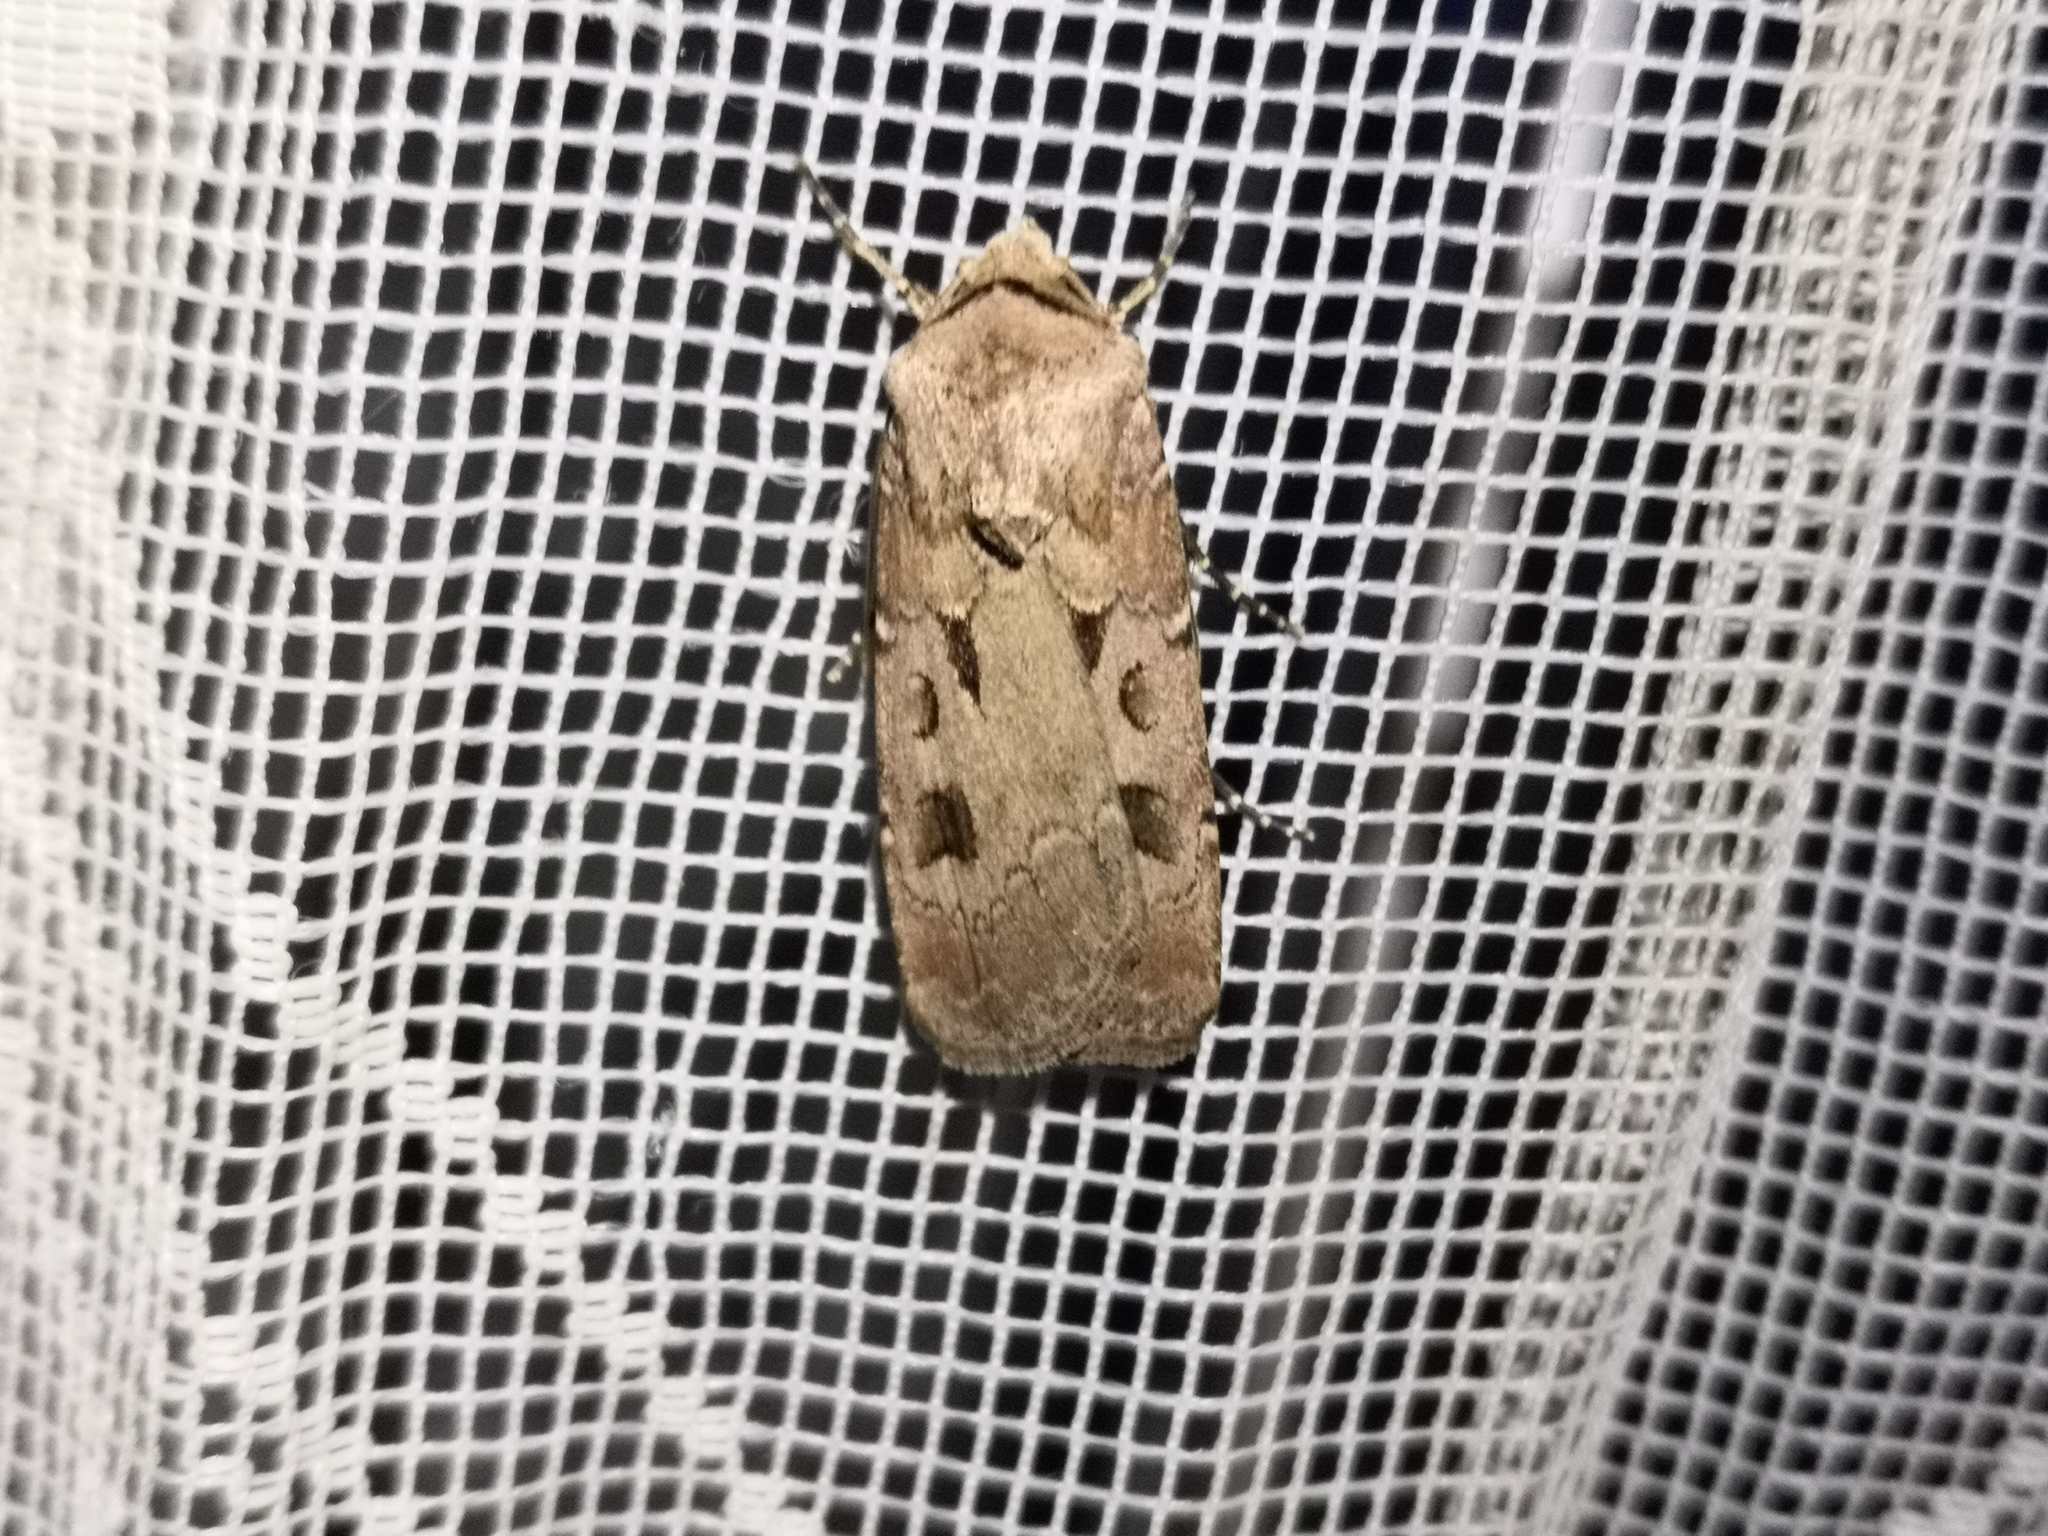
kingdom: Animalia
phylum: Arthropoda
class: Insecta
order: Lepidoptera
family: Noctuidae
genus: Agrotis
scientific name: Agrotis exclamationis
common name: Heart and dart
